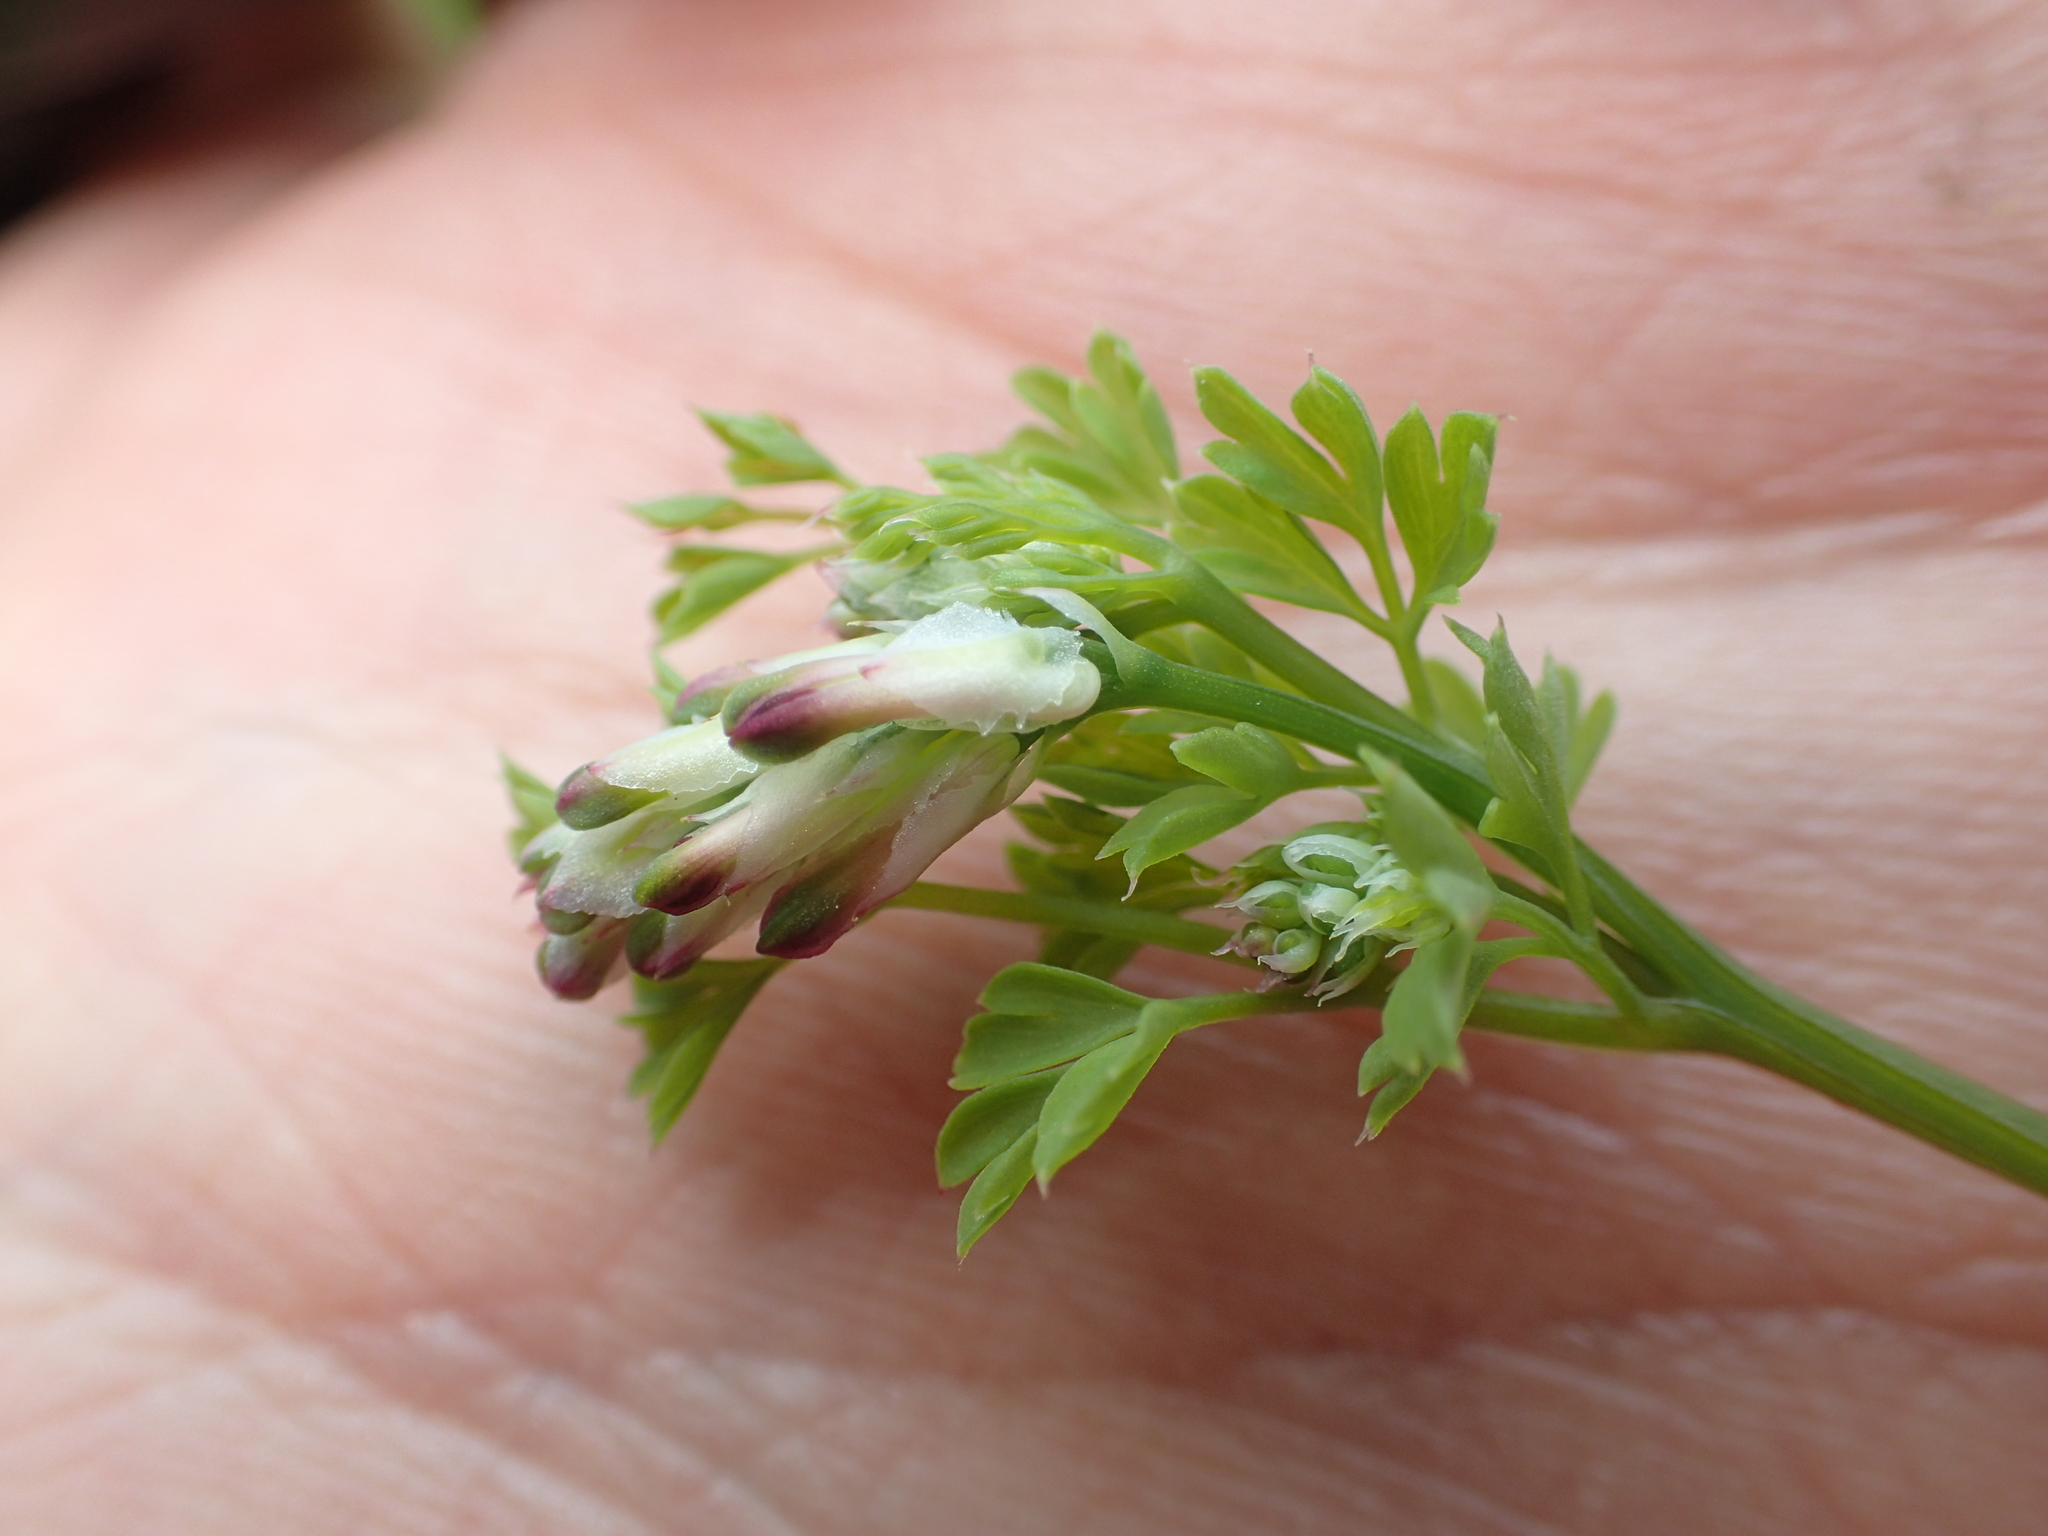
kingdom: Plantae
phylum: Tracheophyta
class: Magnoliopsida
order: Ranunculales
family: Papaveraceae
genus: Fumaria
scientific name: Fumaria muralis
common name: Common ramping-fumitory
